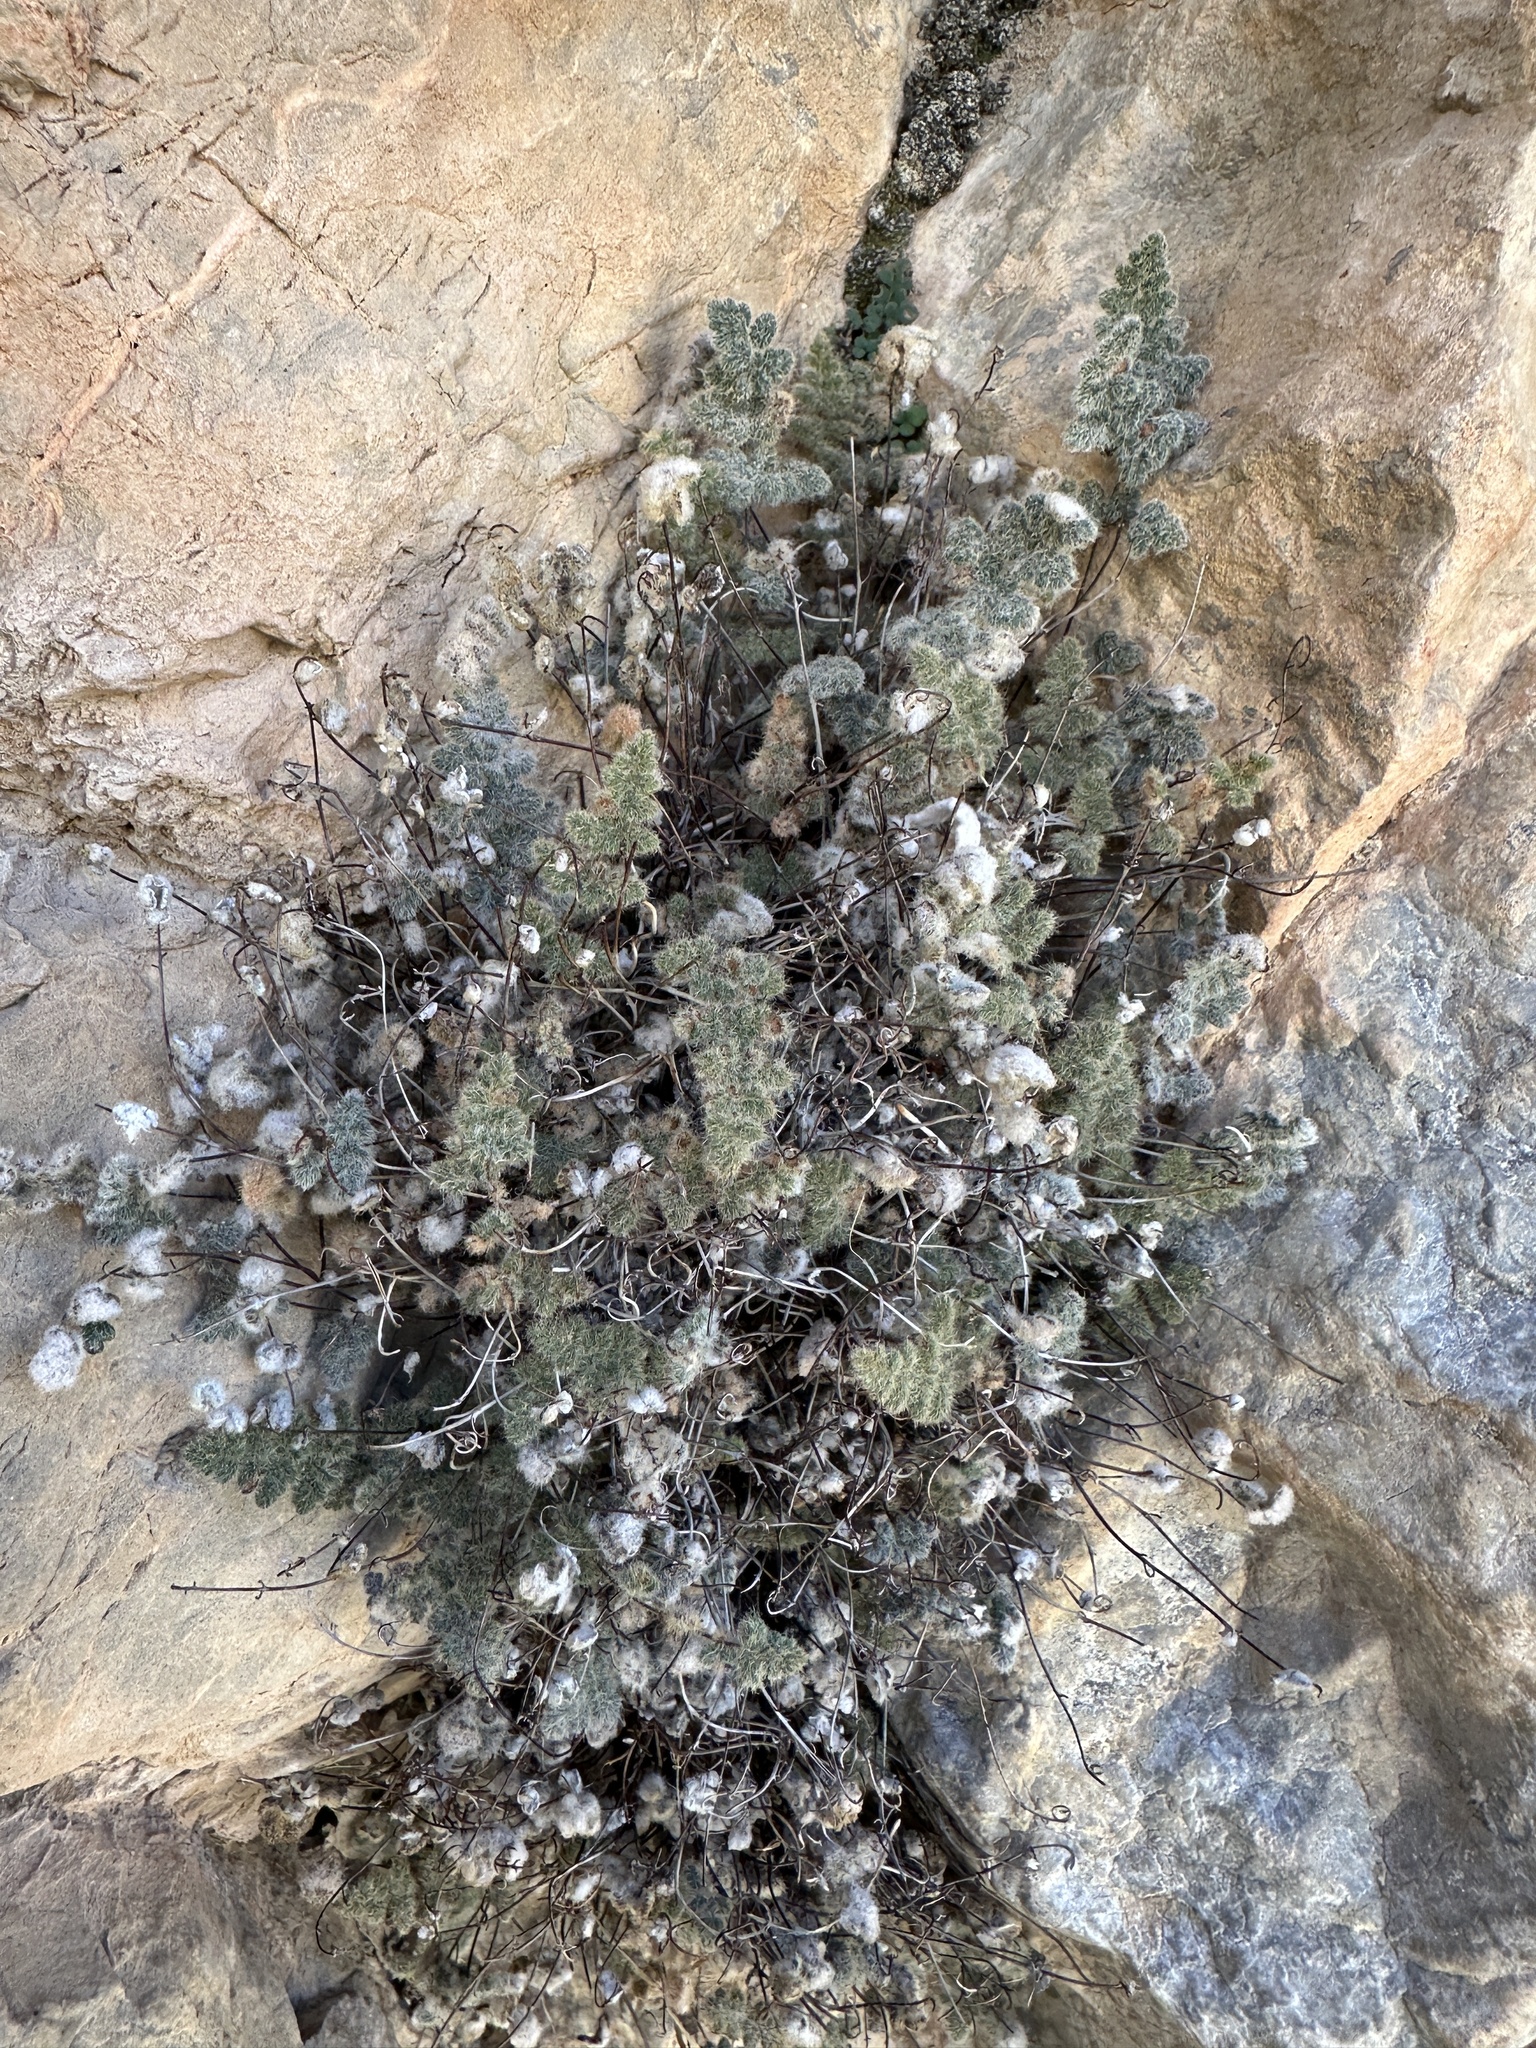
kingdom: Plantae
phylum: Tracheophyta
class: Polypodiopsida
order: Polypodiales
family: Pteridaceae
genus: Myriopteris
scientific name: Myriopteris parryi
